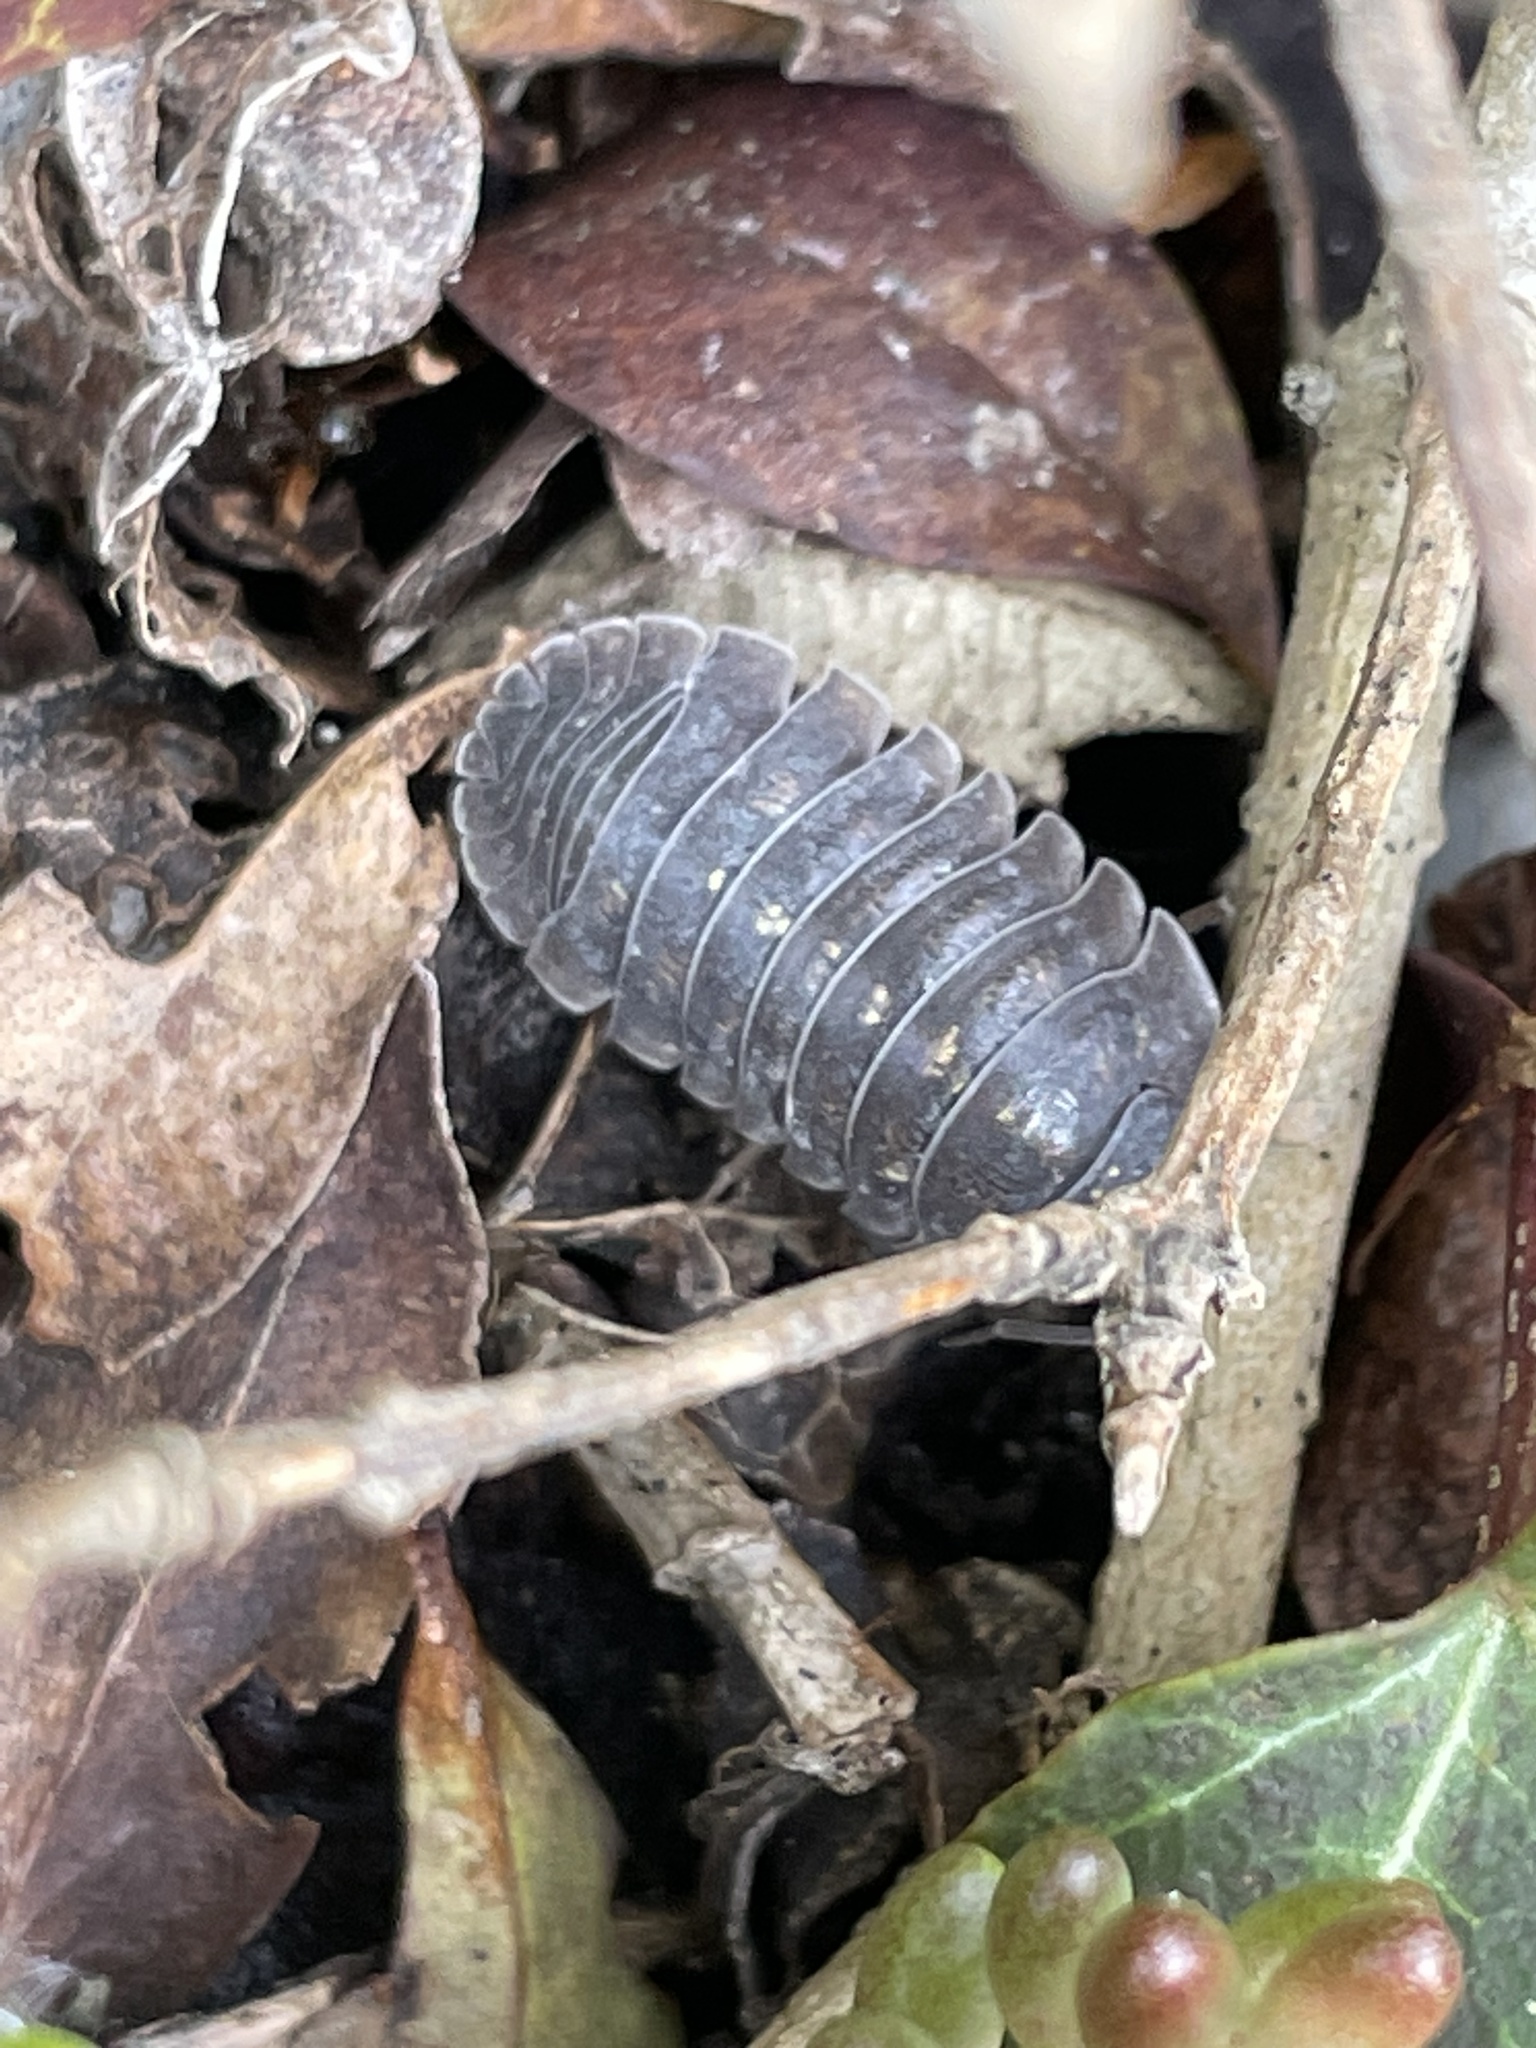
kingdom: Animalia
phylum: Arthropoda
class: Malacostraca
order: Isopoda
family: Armadillidiidae
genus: Armadillidium
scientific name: Armadillidium depressum
